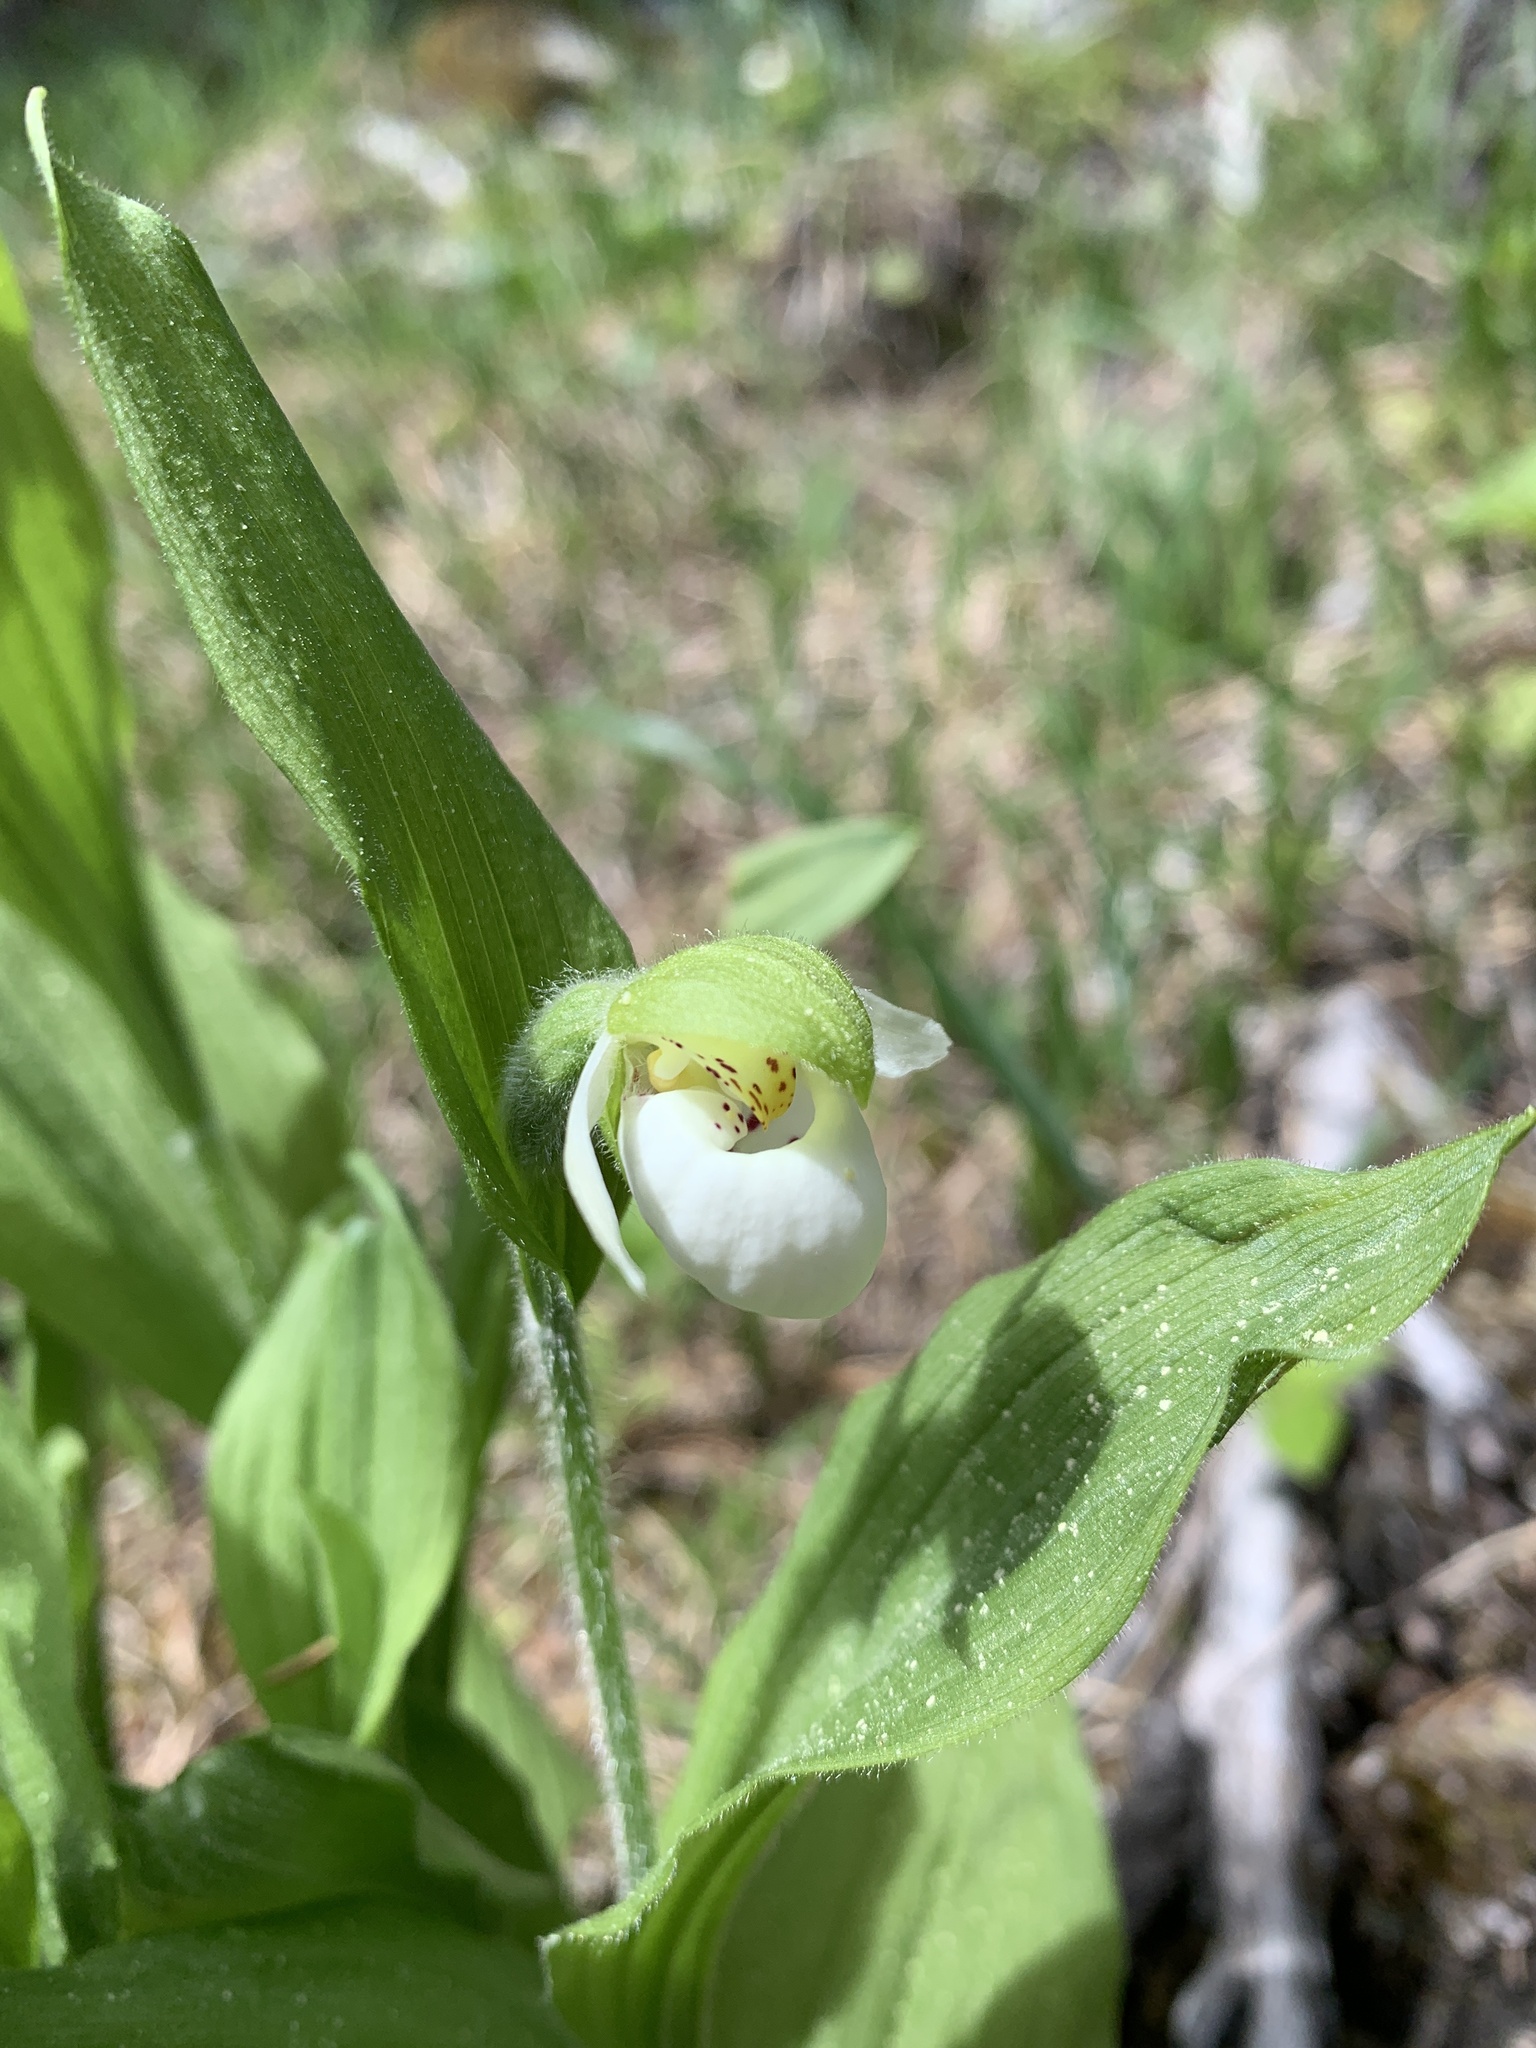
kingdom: Plantae
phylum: Tracheophyta
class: Liliopsida
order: Asparagales
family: Orchidaceae
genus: Cypripedium
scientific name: Cypripedium passerinum
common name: Sparrow's-egg lady's-slipper
